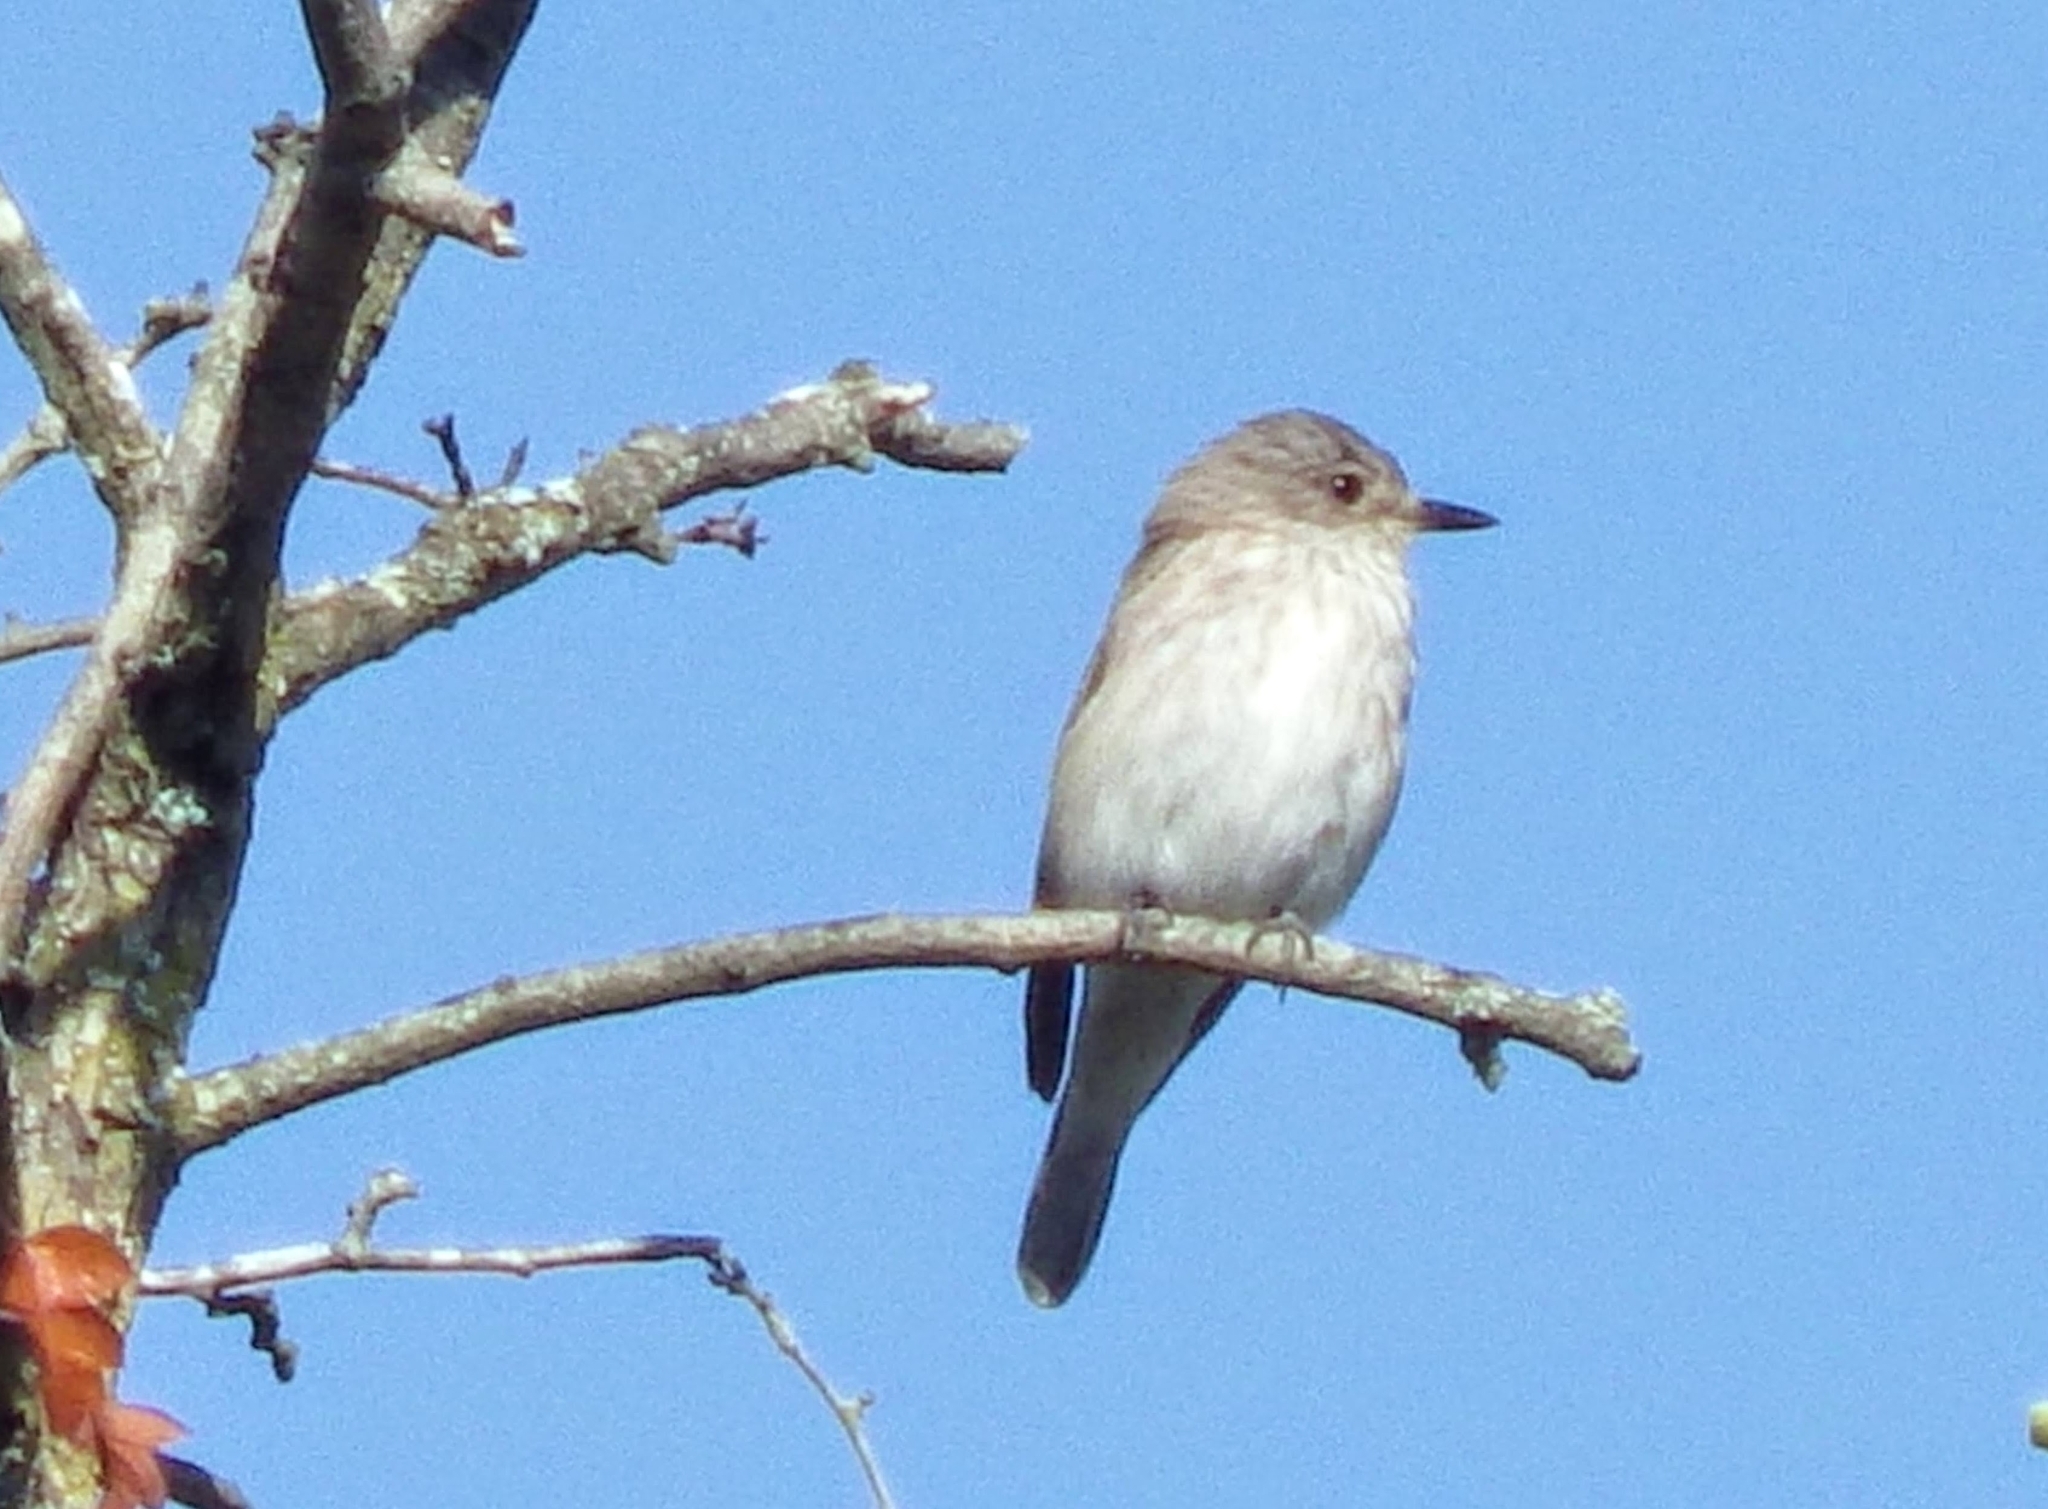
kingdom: Animalia
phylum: Chordata
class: Aves
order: Passeriformes
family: Muscicapidae
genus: Muscicapa
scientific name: Muscicapa striata
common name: Spotted flycatcher
